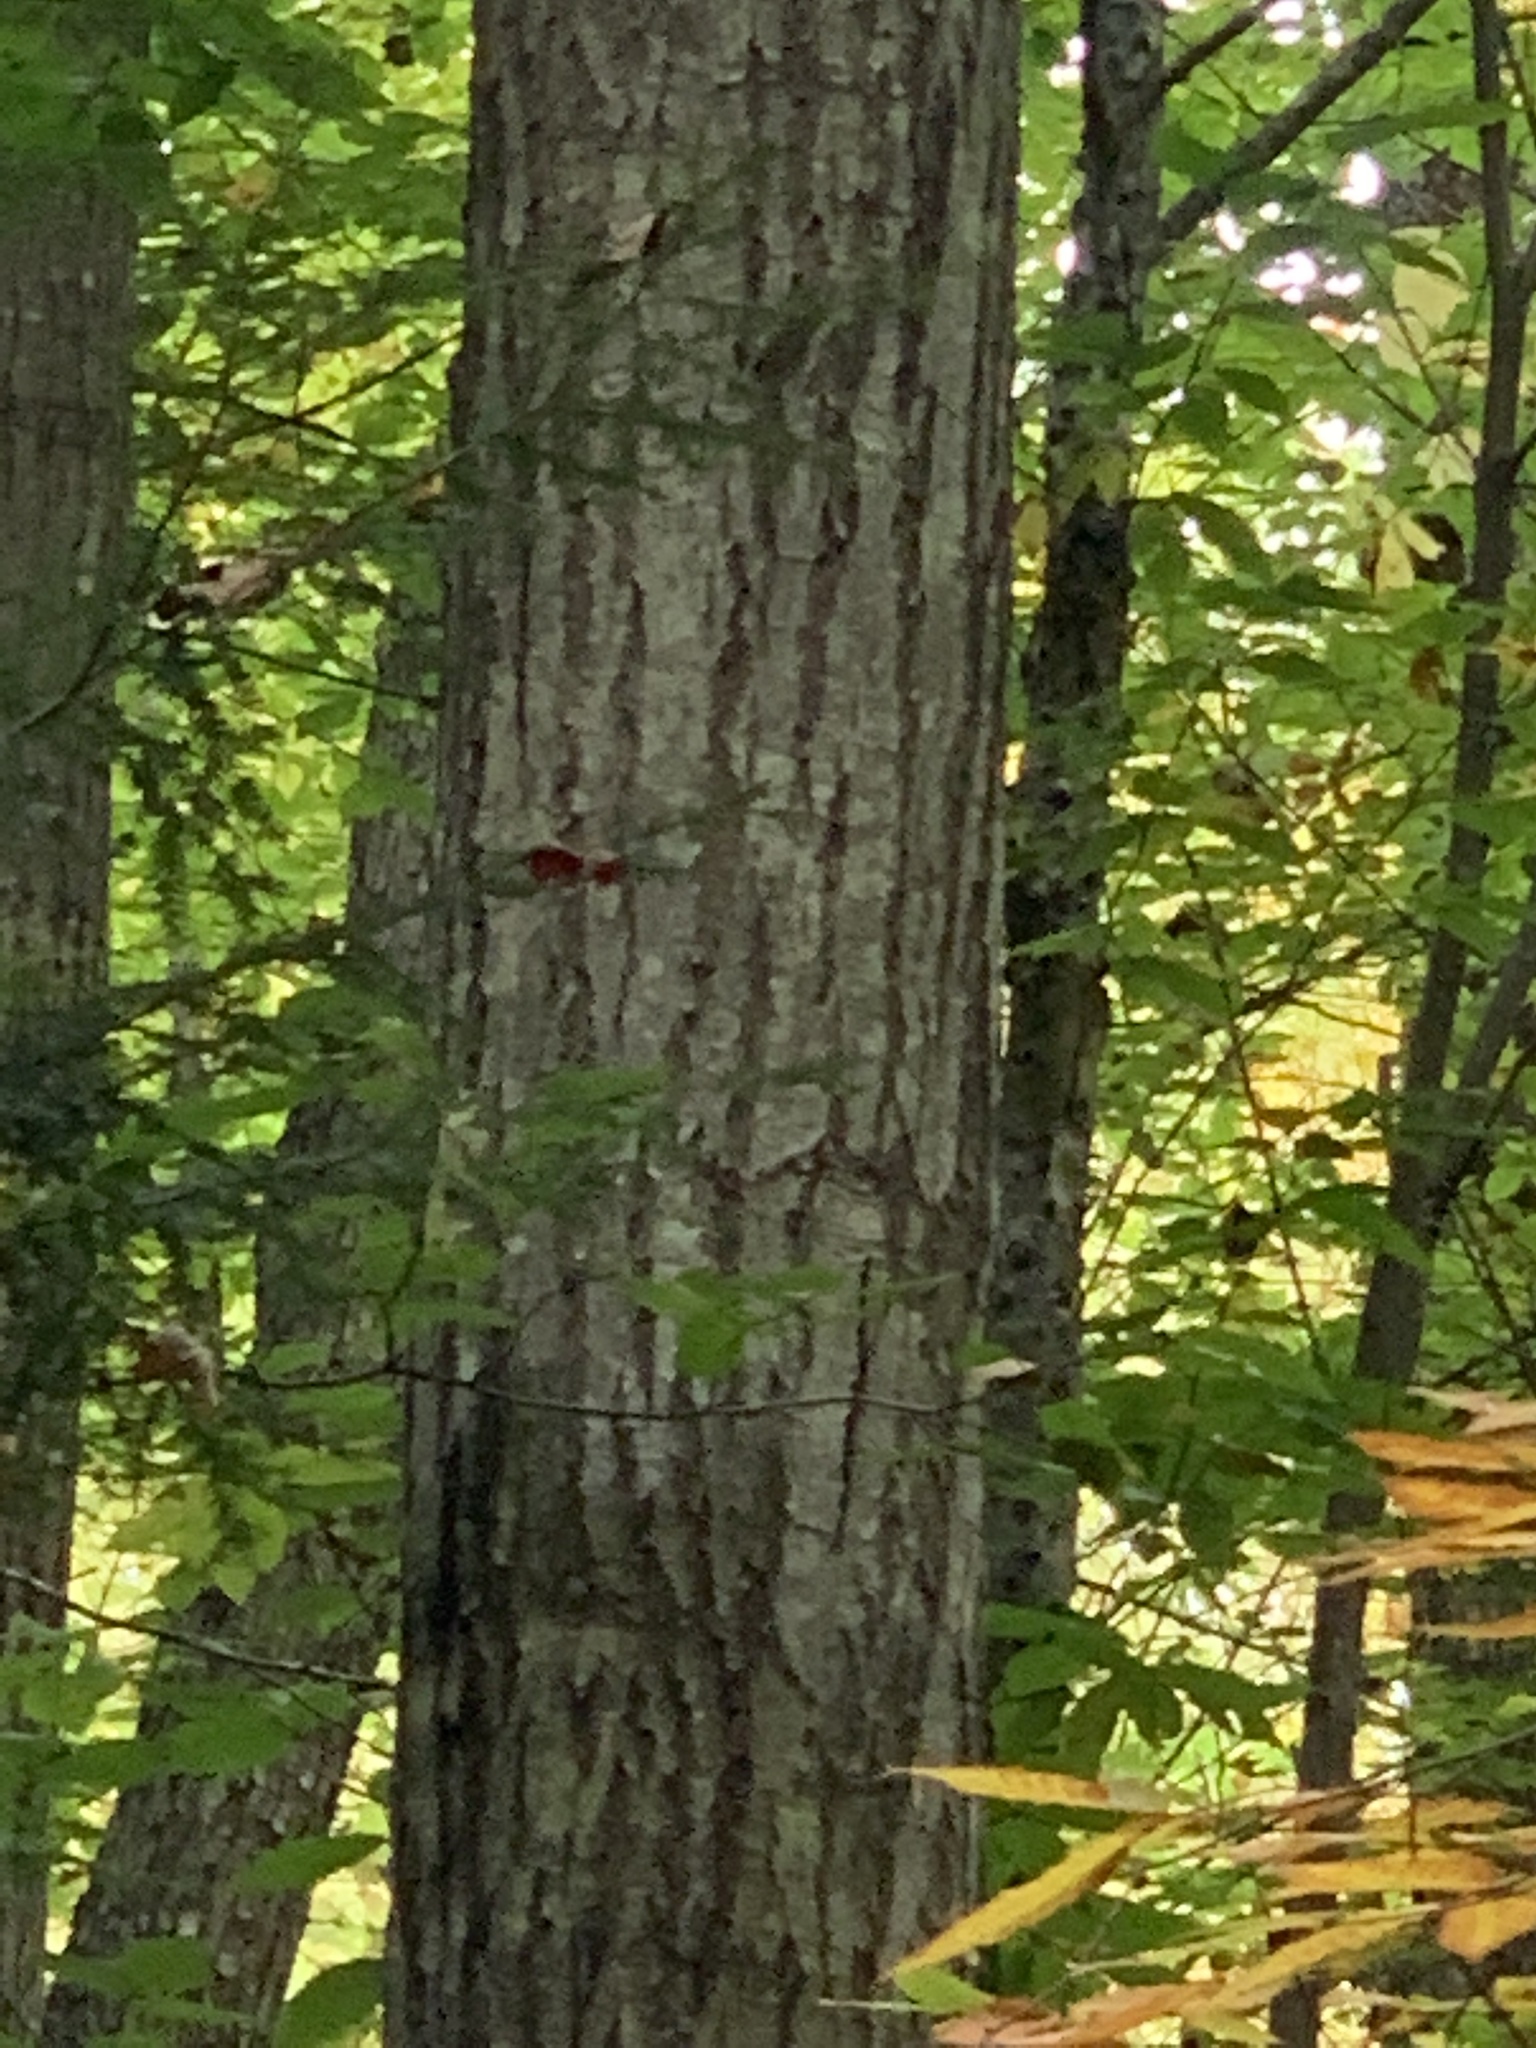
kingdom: Plantae
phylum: Tracheophyta
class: Magnoliopsida
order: Fagales
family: Fagaceae
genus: Quercus
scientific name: Quercus rubra
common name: Red oak
